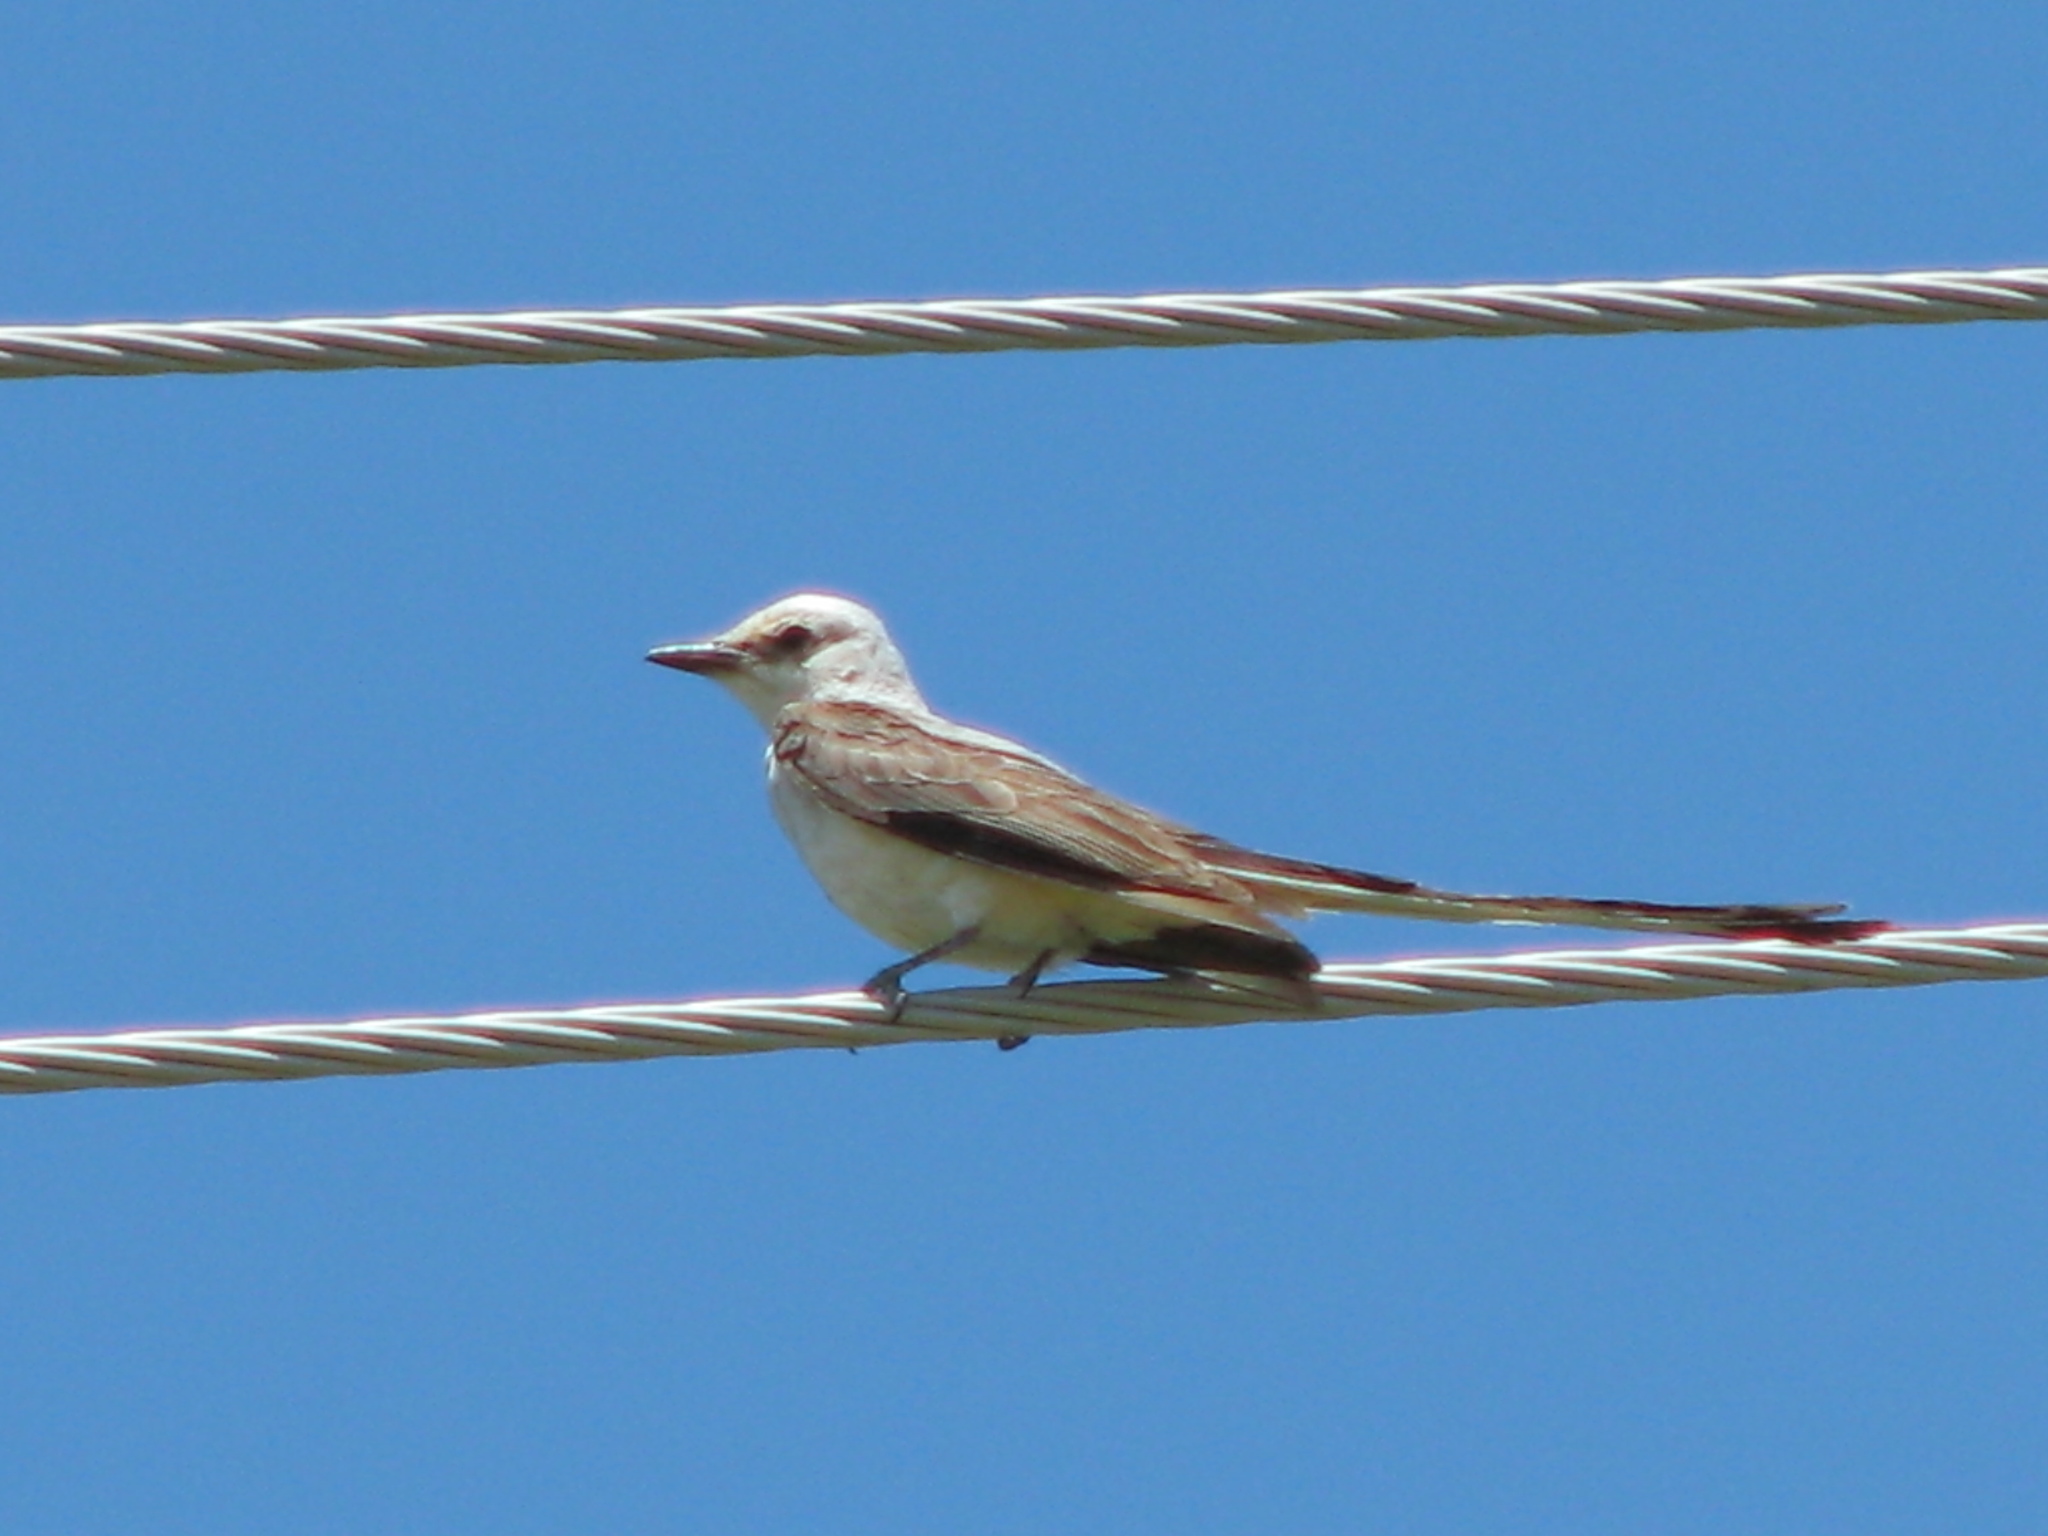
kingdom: Animalia
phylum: Chordata
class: Aves
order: Passeriformes
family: Tyrannidae
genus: Tyrannus
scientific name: Tyrannus forficatus
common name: Scissor-tailed flycatcher
